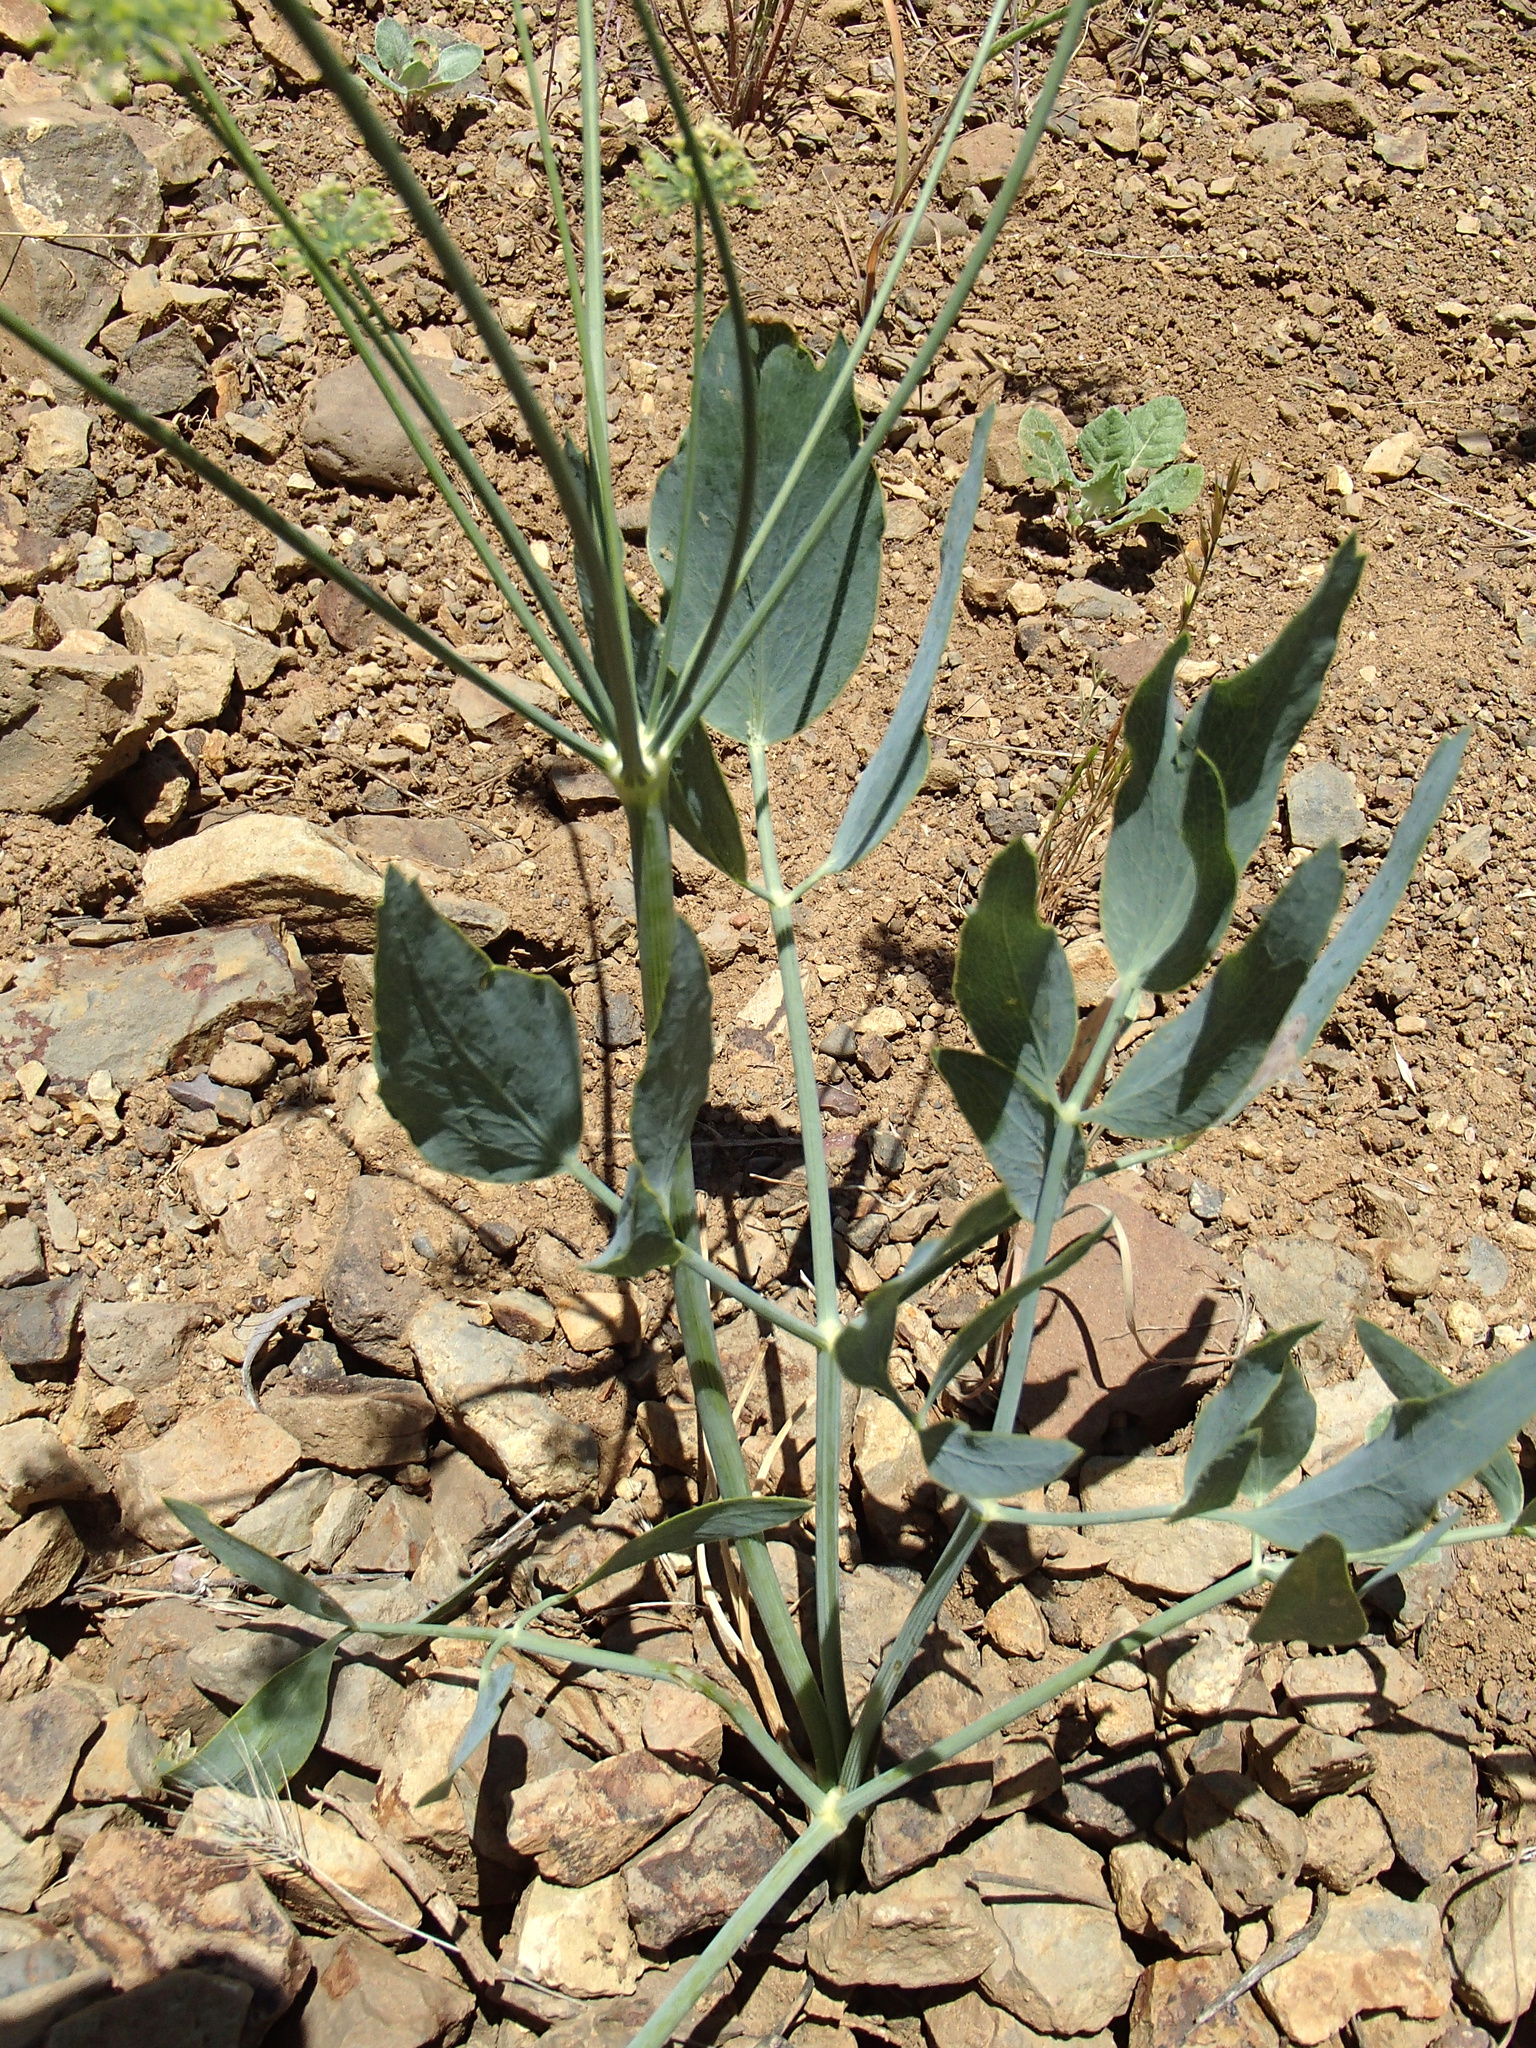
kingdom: Plantae
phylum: Tracheophyta
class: Magnoliopsida
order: Apiales
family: Apiaceae
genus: Lomatium
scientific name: Lomatium nudicaule
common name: Pestle lomatium
